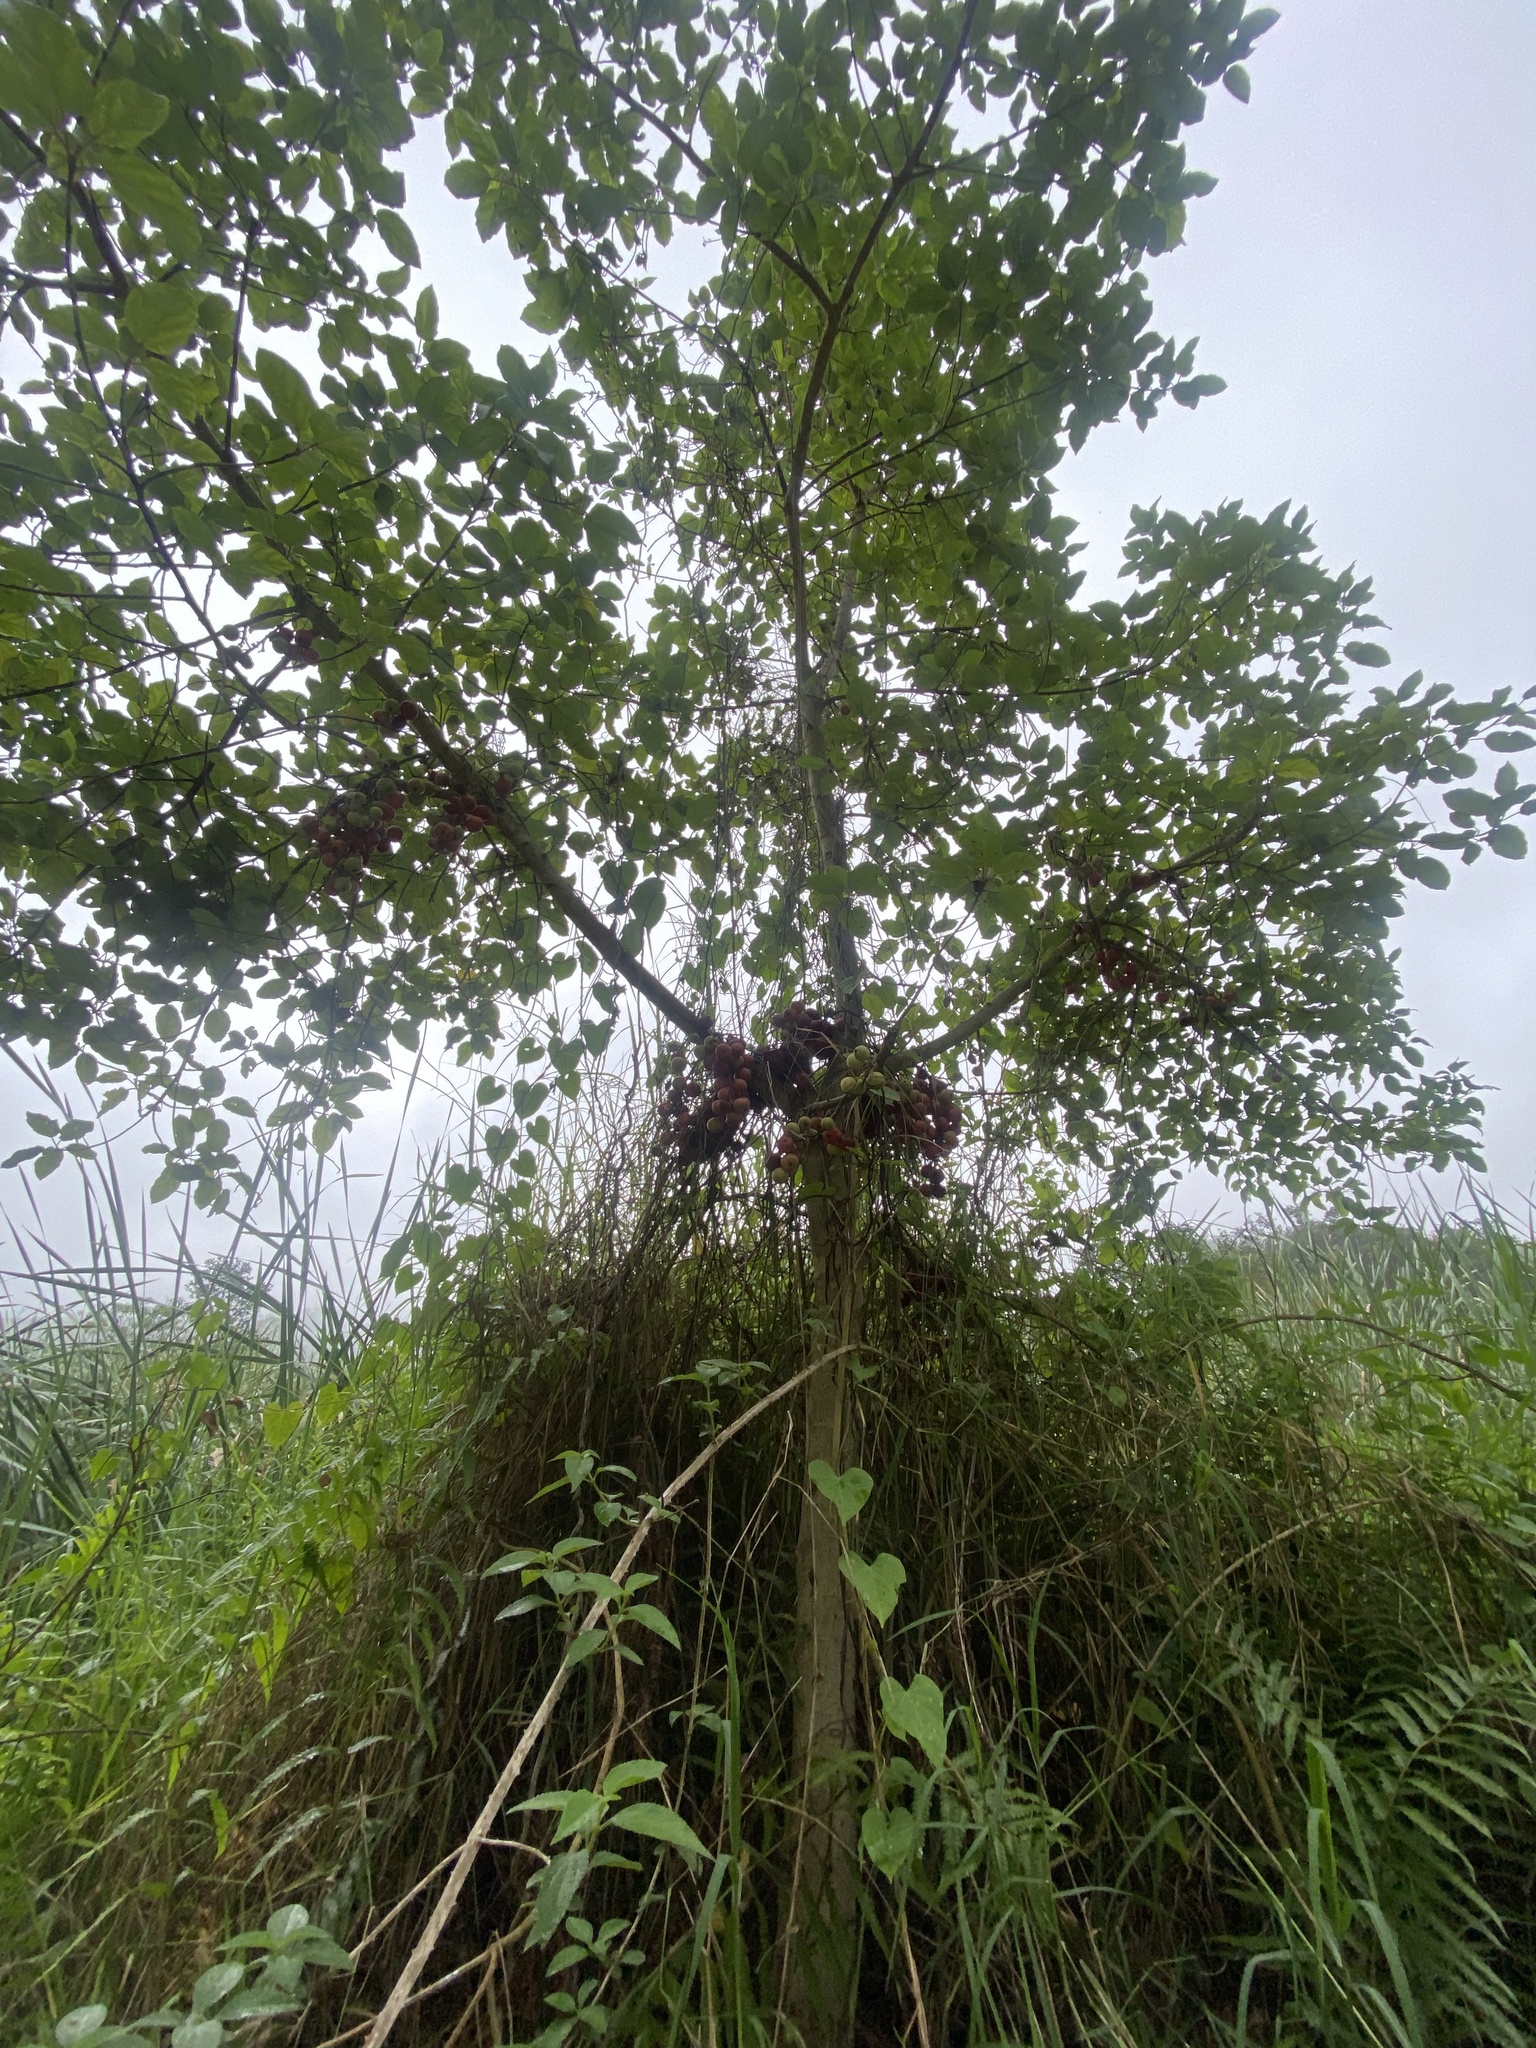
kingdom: Plantae
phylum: Tracheophyta
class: Magnoliopsida
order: Rosales
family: Moraceae
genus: Ficus
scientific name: Ficus sur
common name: Cape fig
